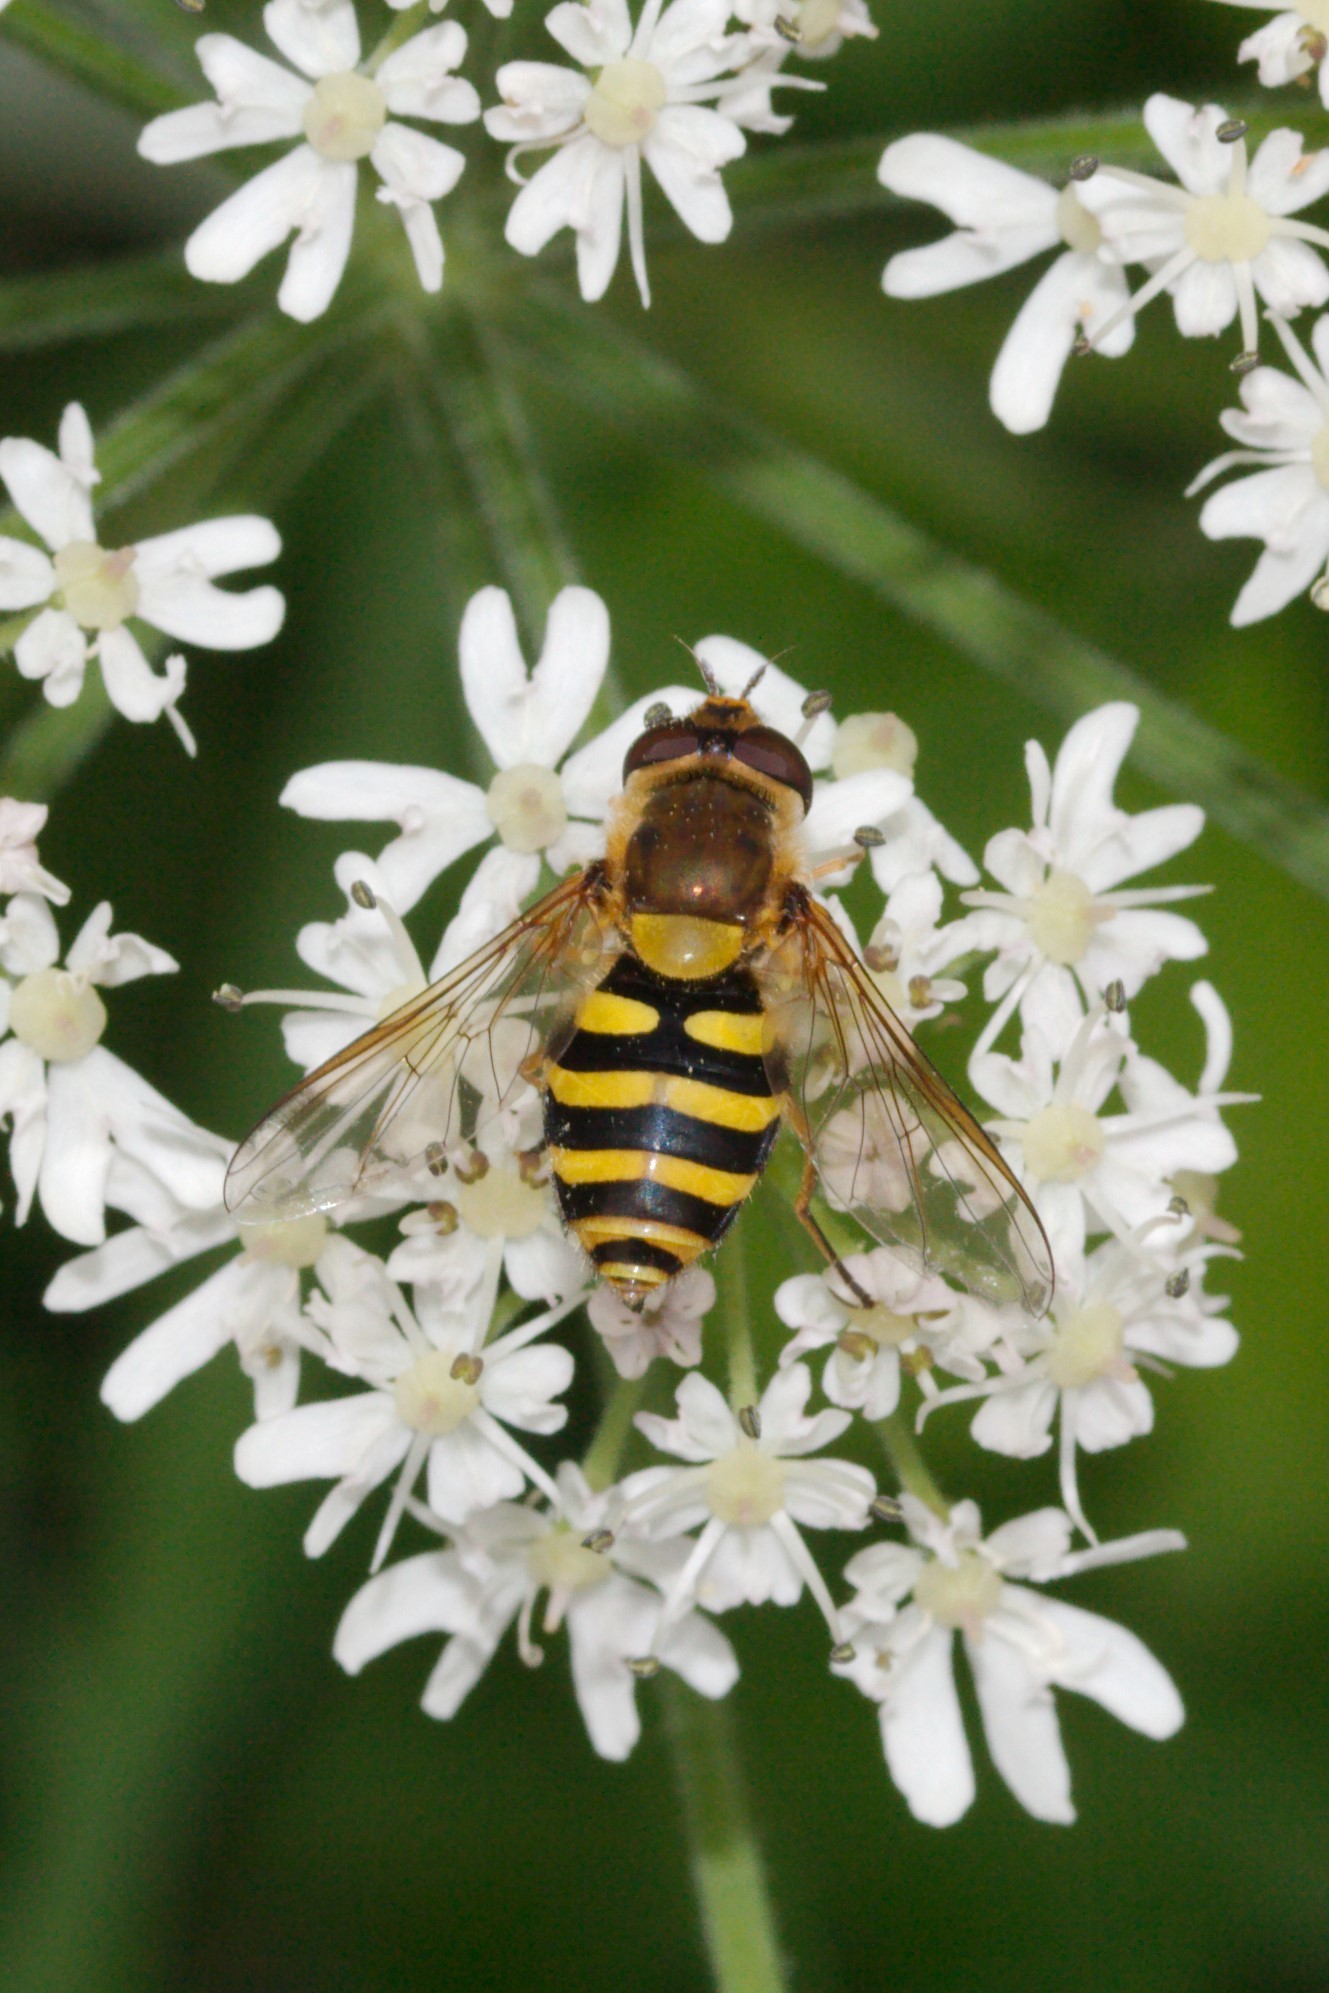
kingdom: Animalia
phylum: Arthropoda
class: Insecta
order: Diptera
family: Syrphidae
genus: Syrphus
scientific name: Syrphus
